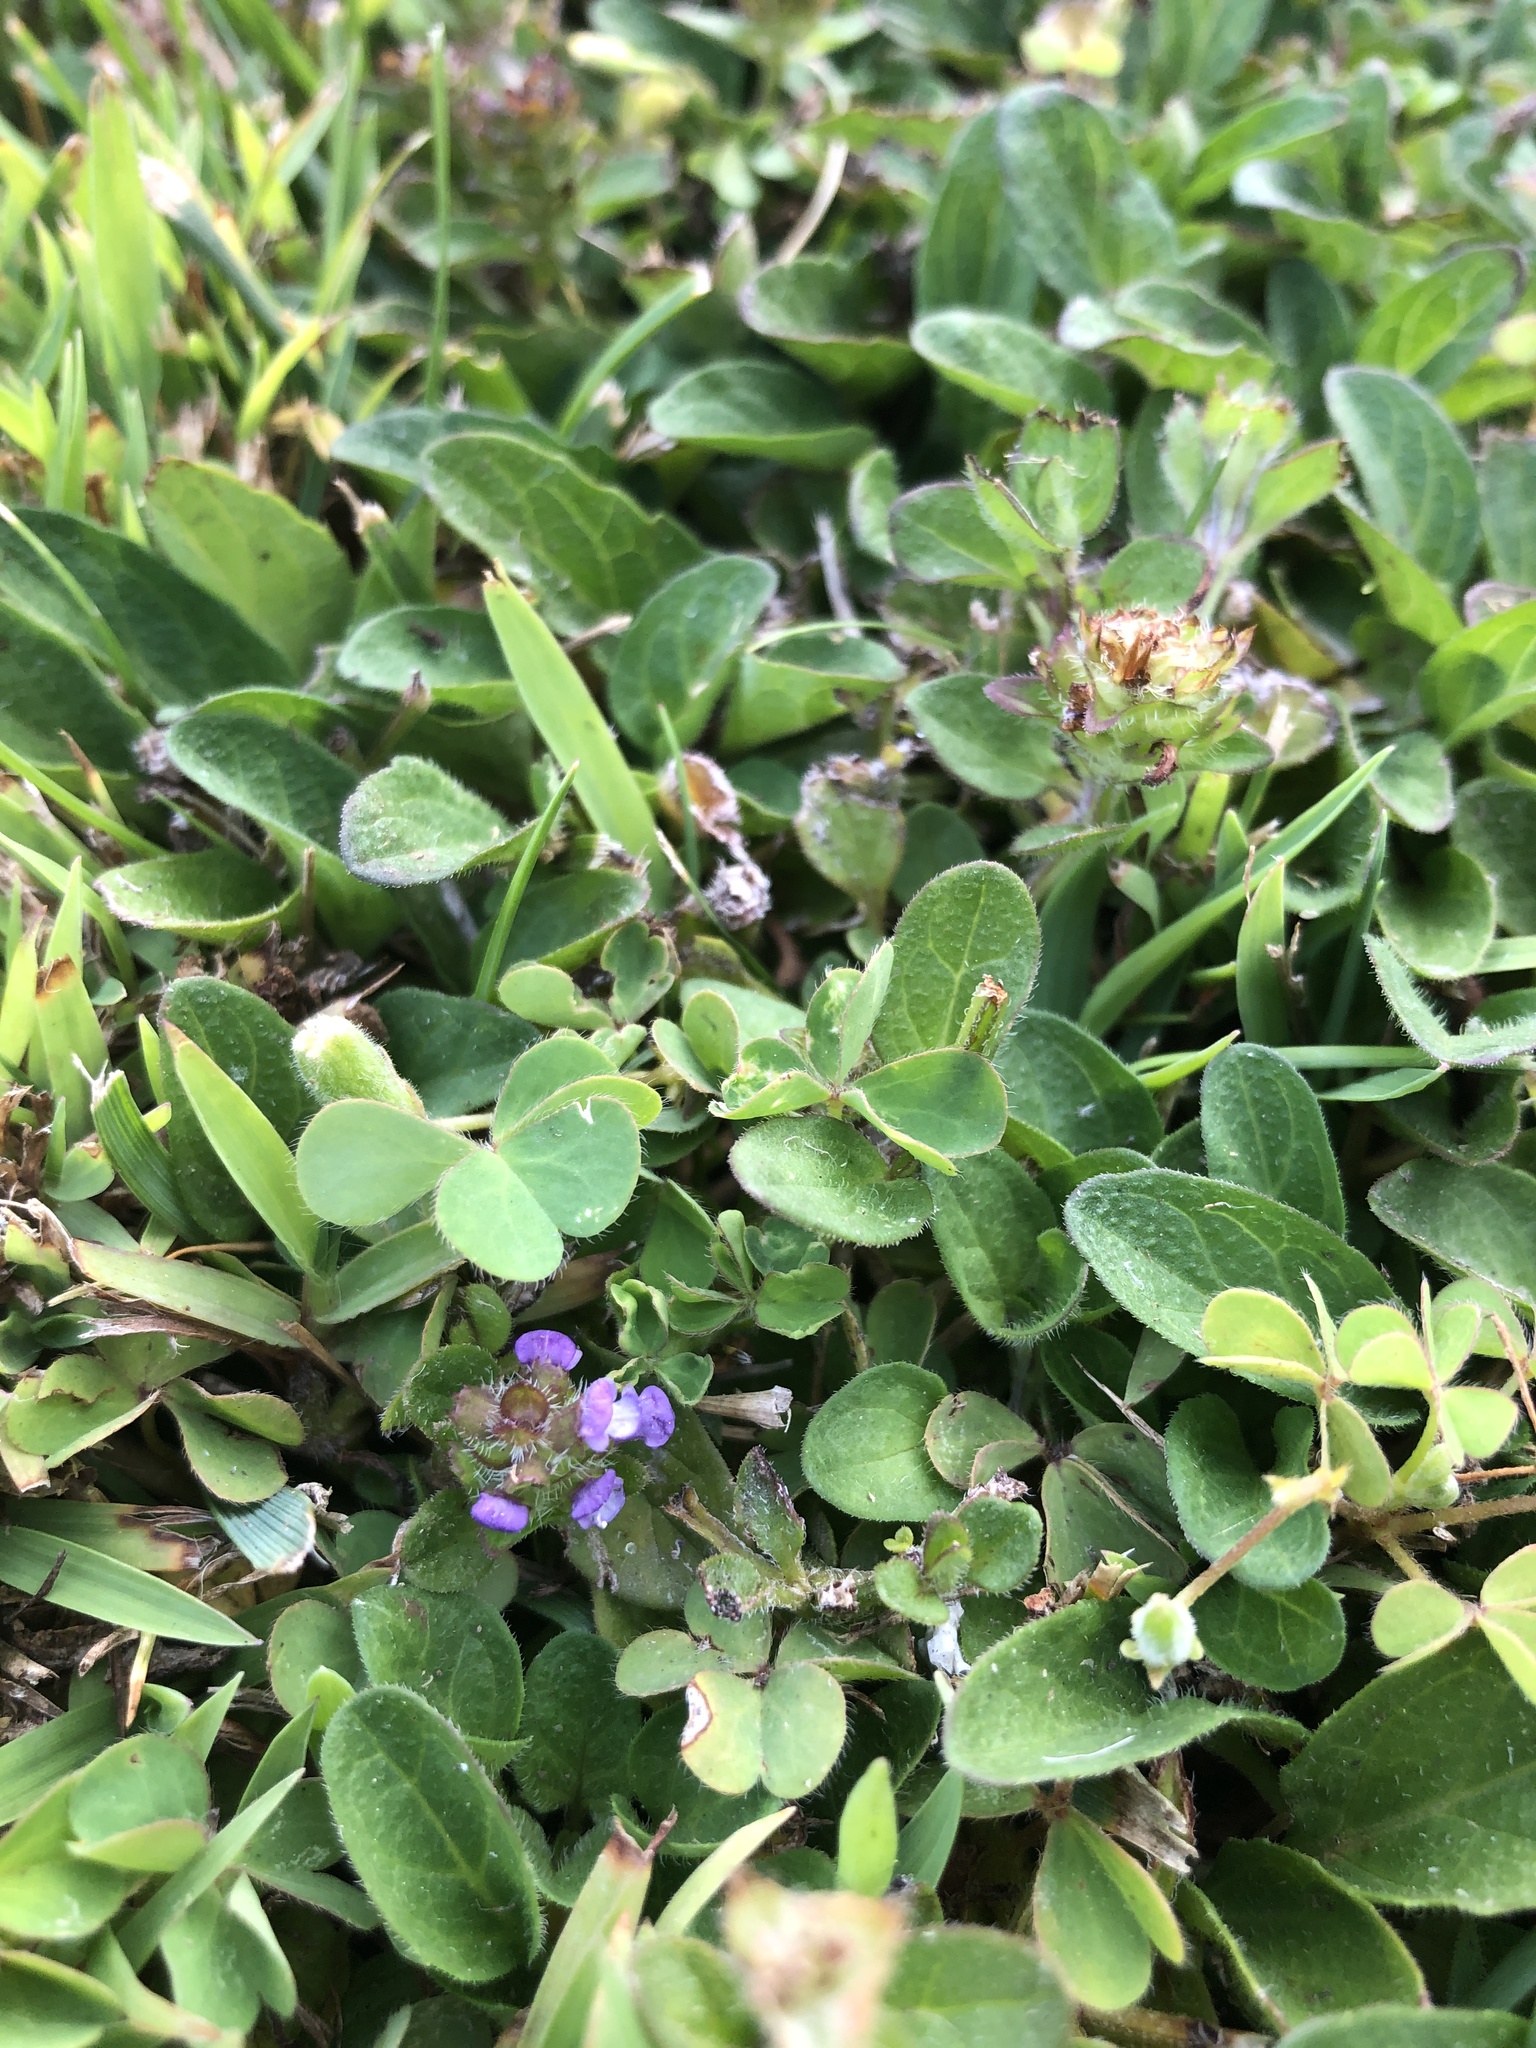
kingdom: Plantae
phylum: Tracheophyta
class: Magnoliopsida
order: Lamiales
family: Lamiaceae
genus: Prunella
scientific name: Prunella vulgaris
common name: Heal-all
